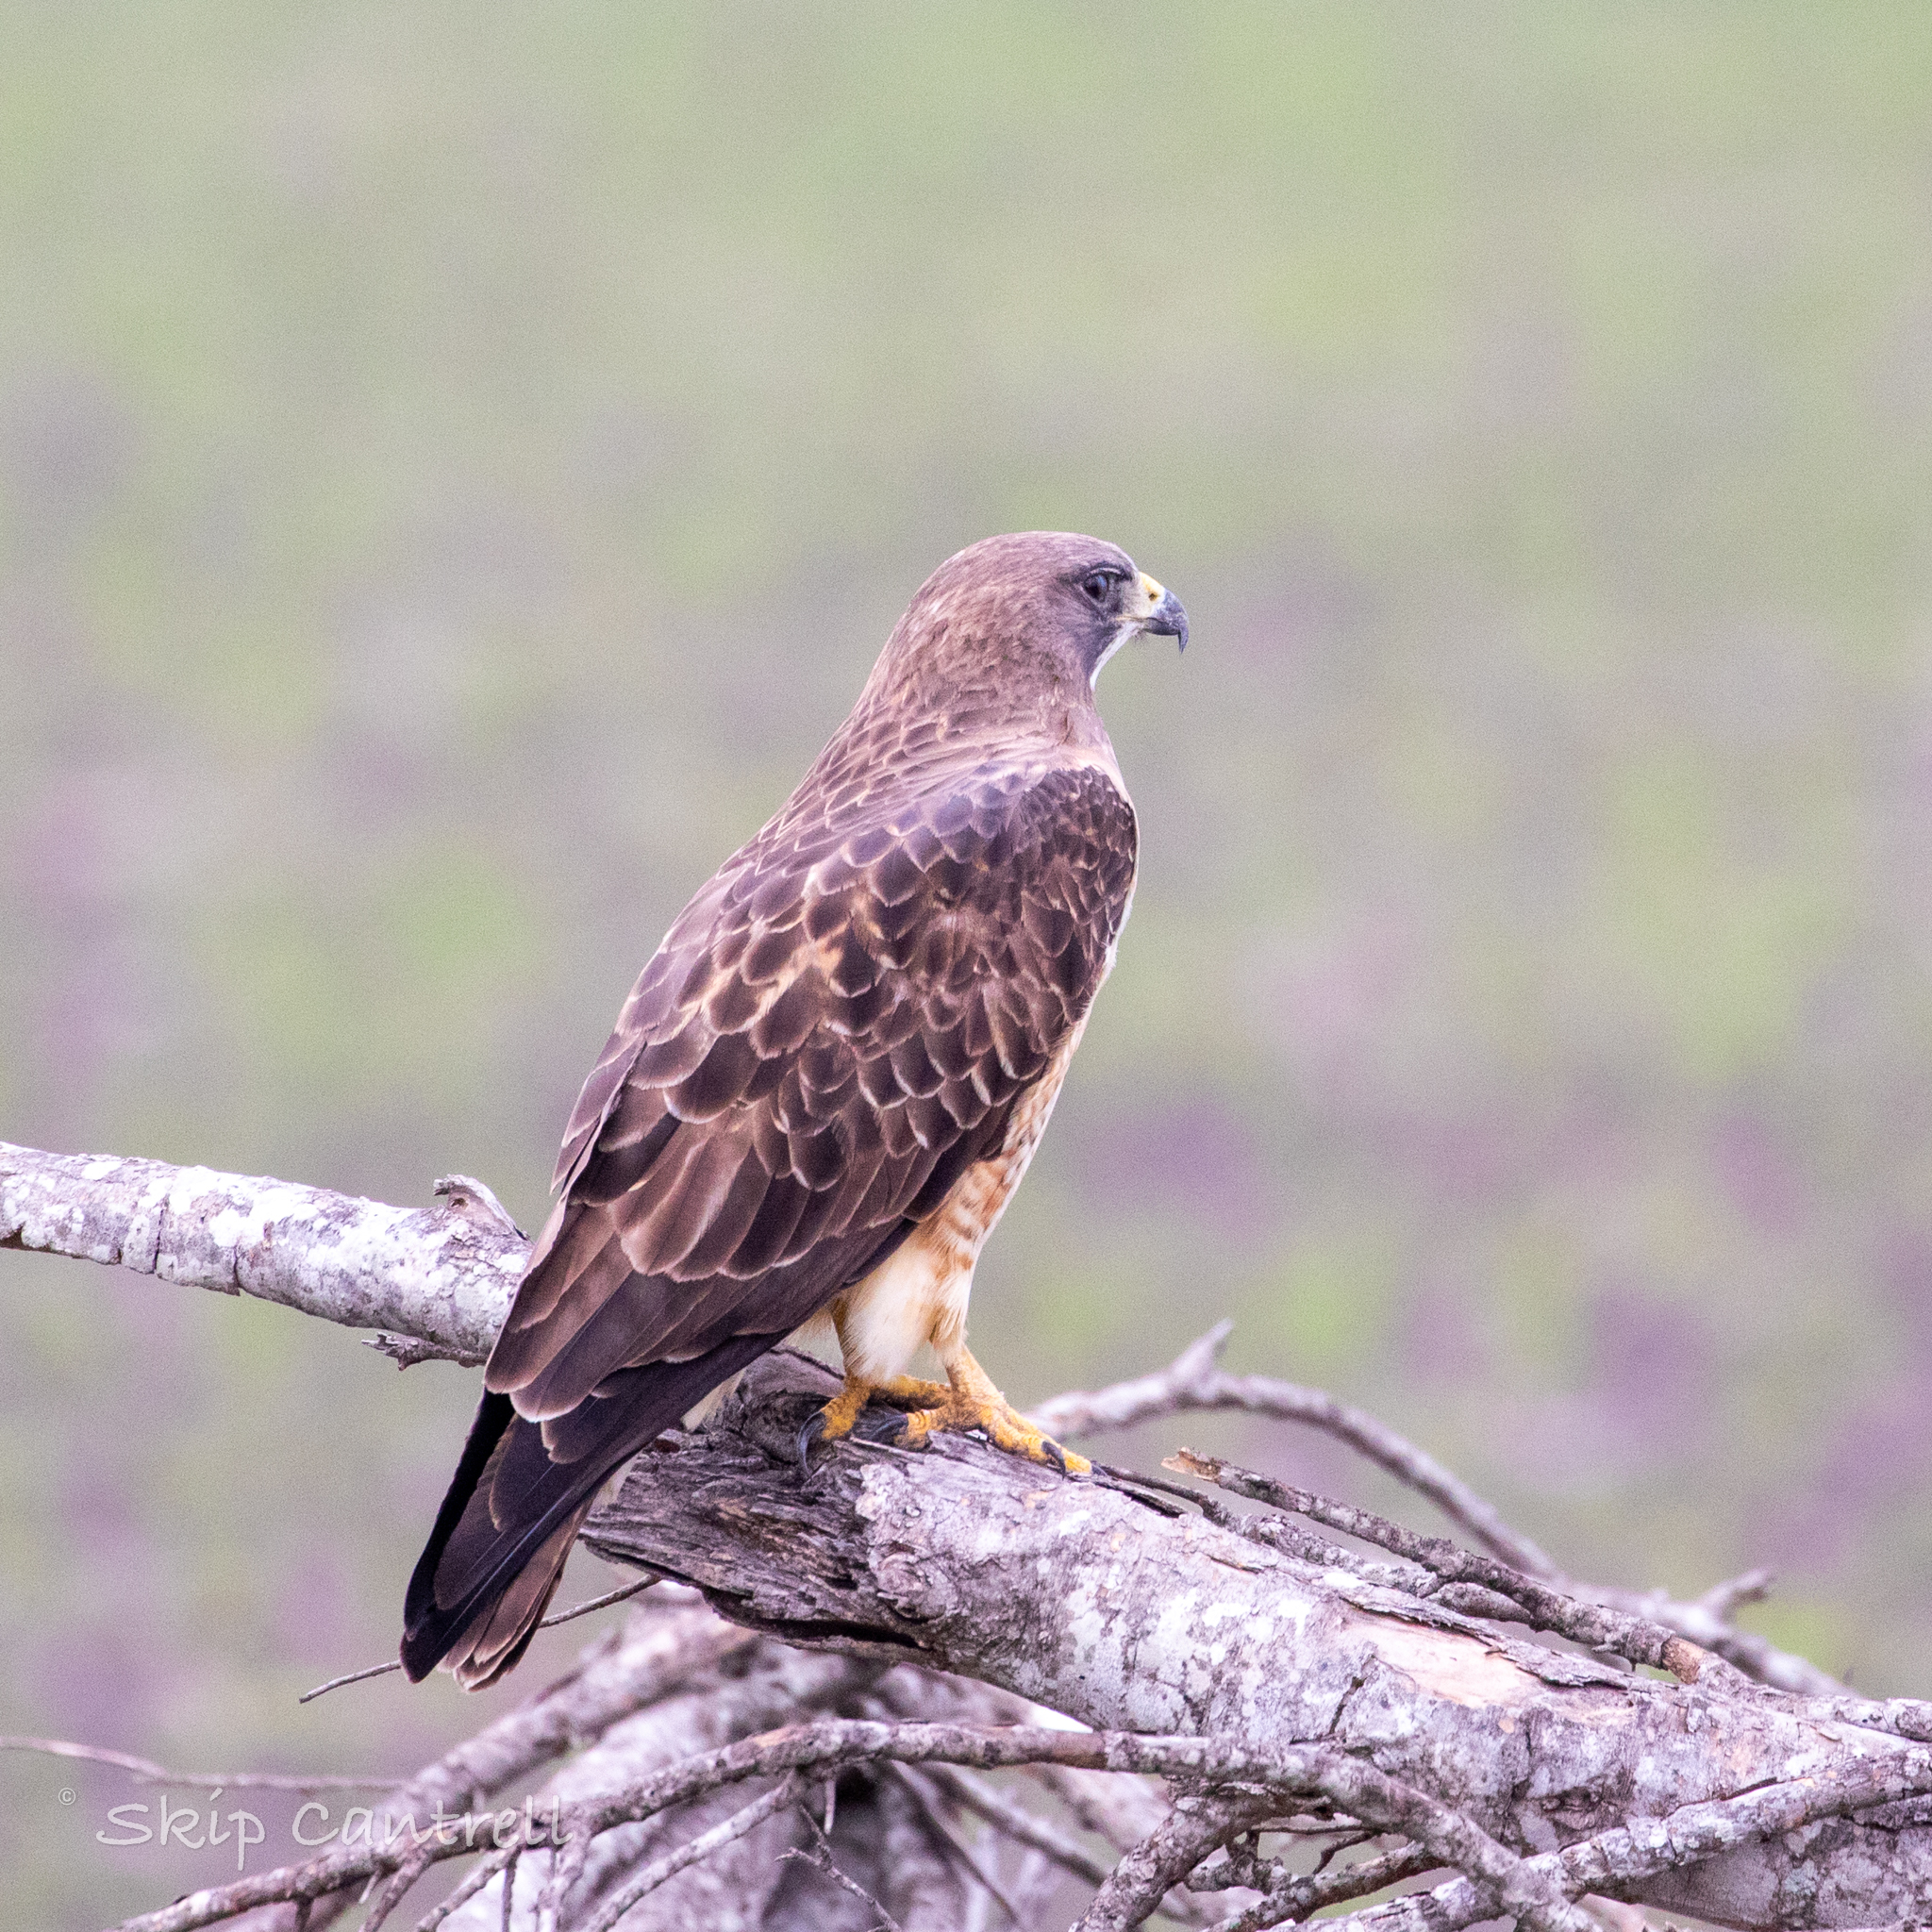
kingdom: Animalia
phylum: Chordata
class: Aves
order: Accipitriformes
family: Accipitridae
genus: Buteo
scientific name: Buteo swainsoni
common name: Swainson's hawk
